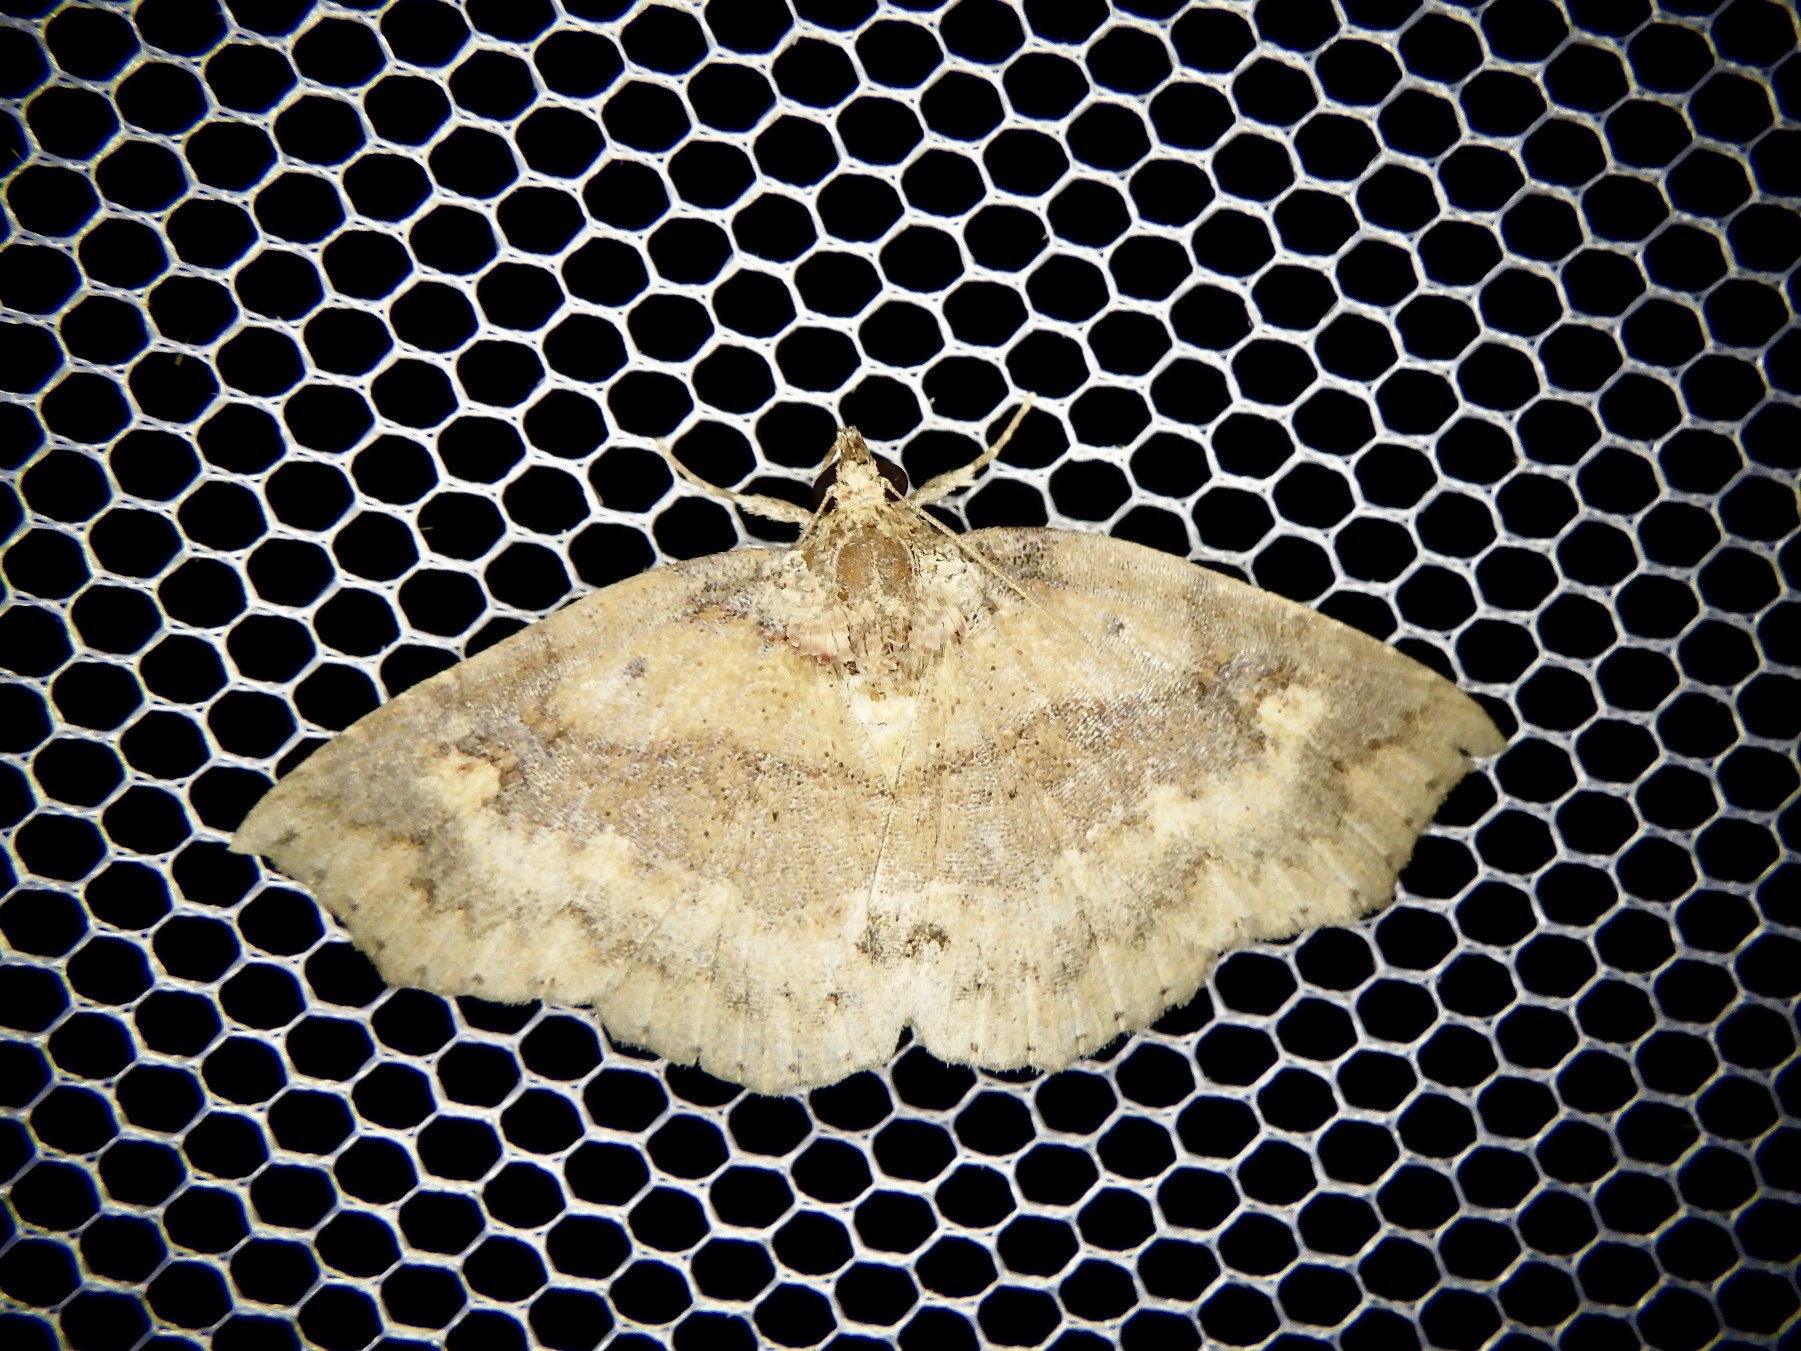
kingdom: Animalia
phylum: Arthropoda
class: Insecta
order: Lepidoptera
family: Erebidae
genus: Tamba
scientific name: Tamba corealis
